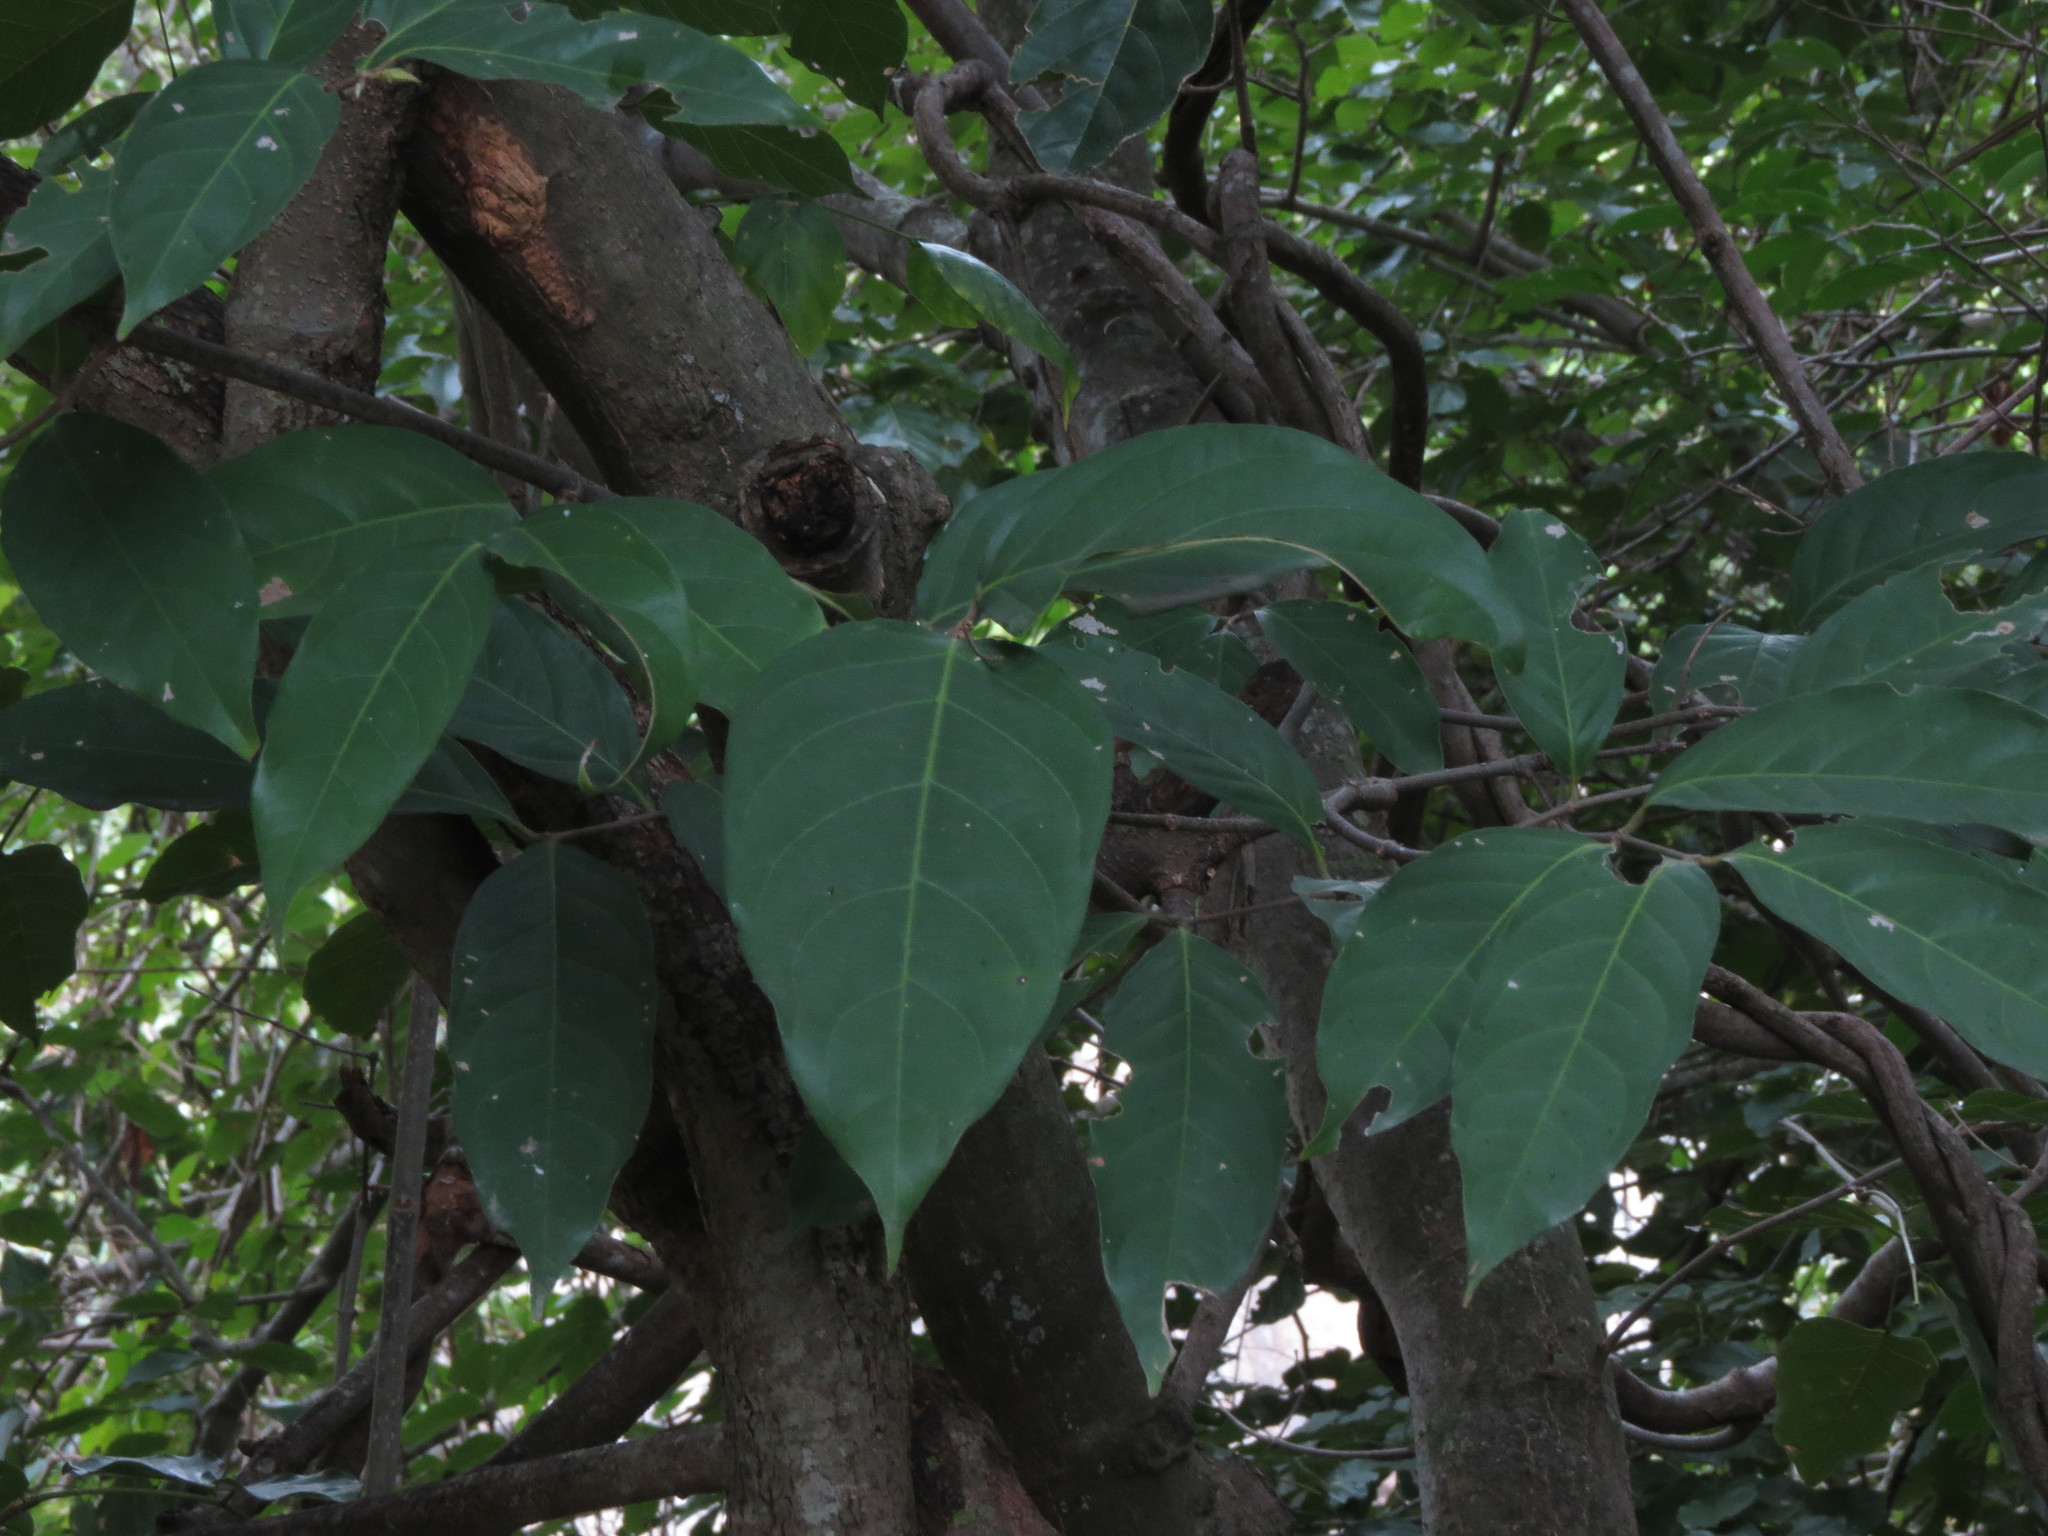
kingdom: Plantae
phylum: Tracheophyta
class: Magnoliopsida
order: Malpighiales
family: Malpighiaceae
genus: Hiptage
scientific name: Hiptage benghalensis
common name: Hiptage
